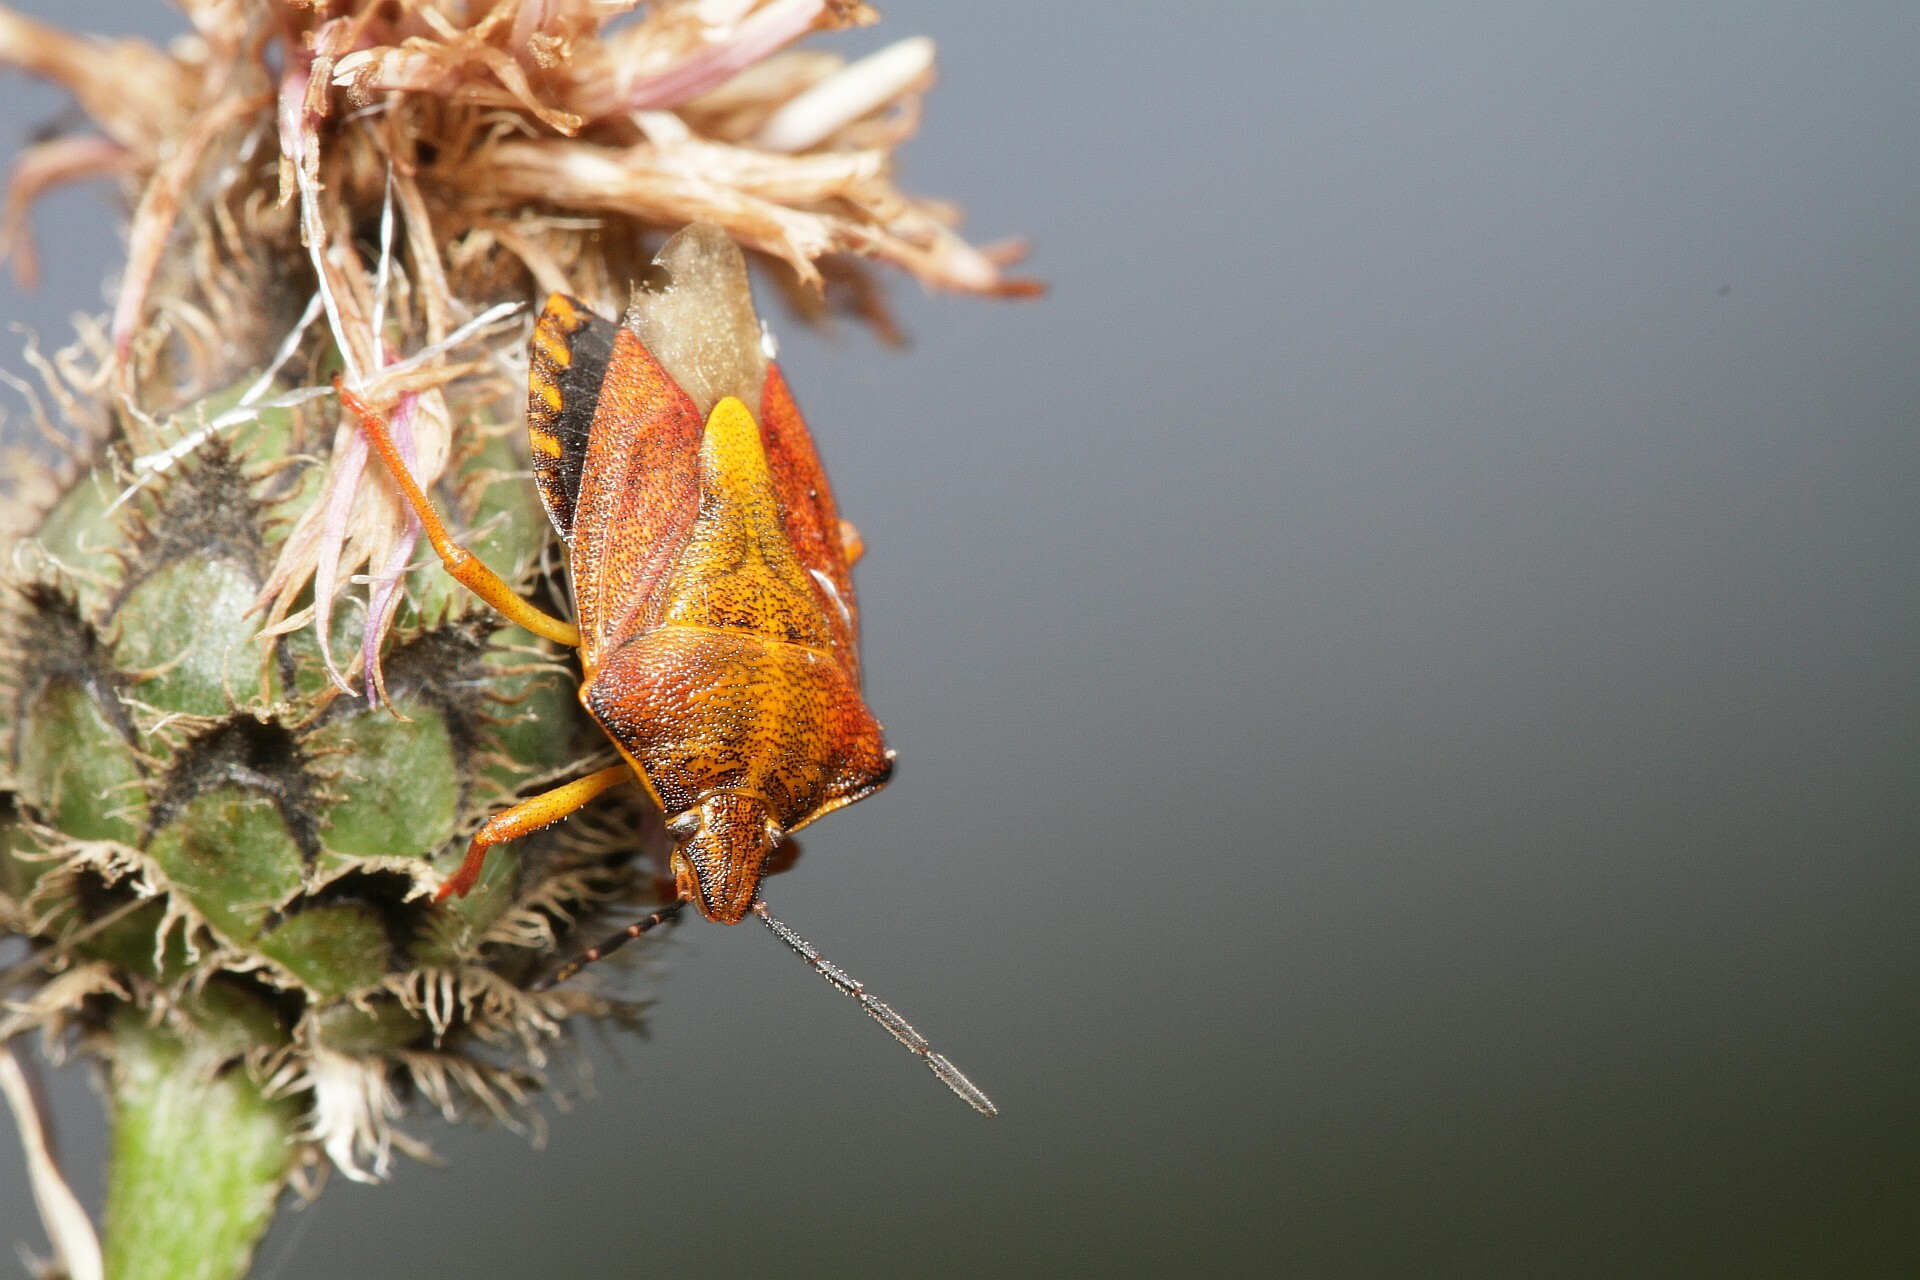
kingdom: Animalia
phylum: Arthropoda
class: Insecta
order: Hemiptera
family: Pentatomidae
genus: Carpocoris
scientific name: Carpocoris purpureipennis
